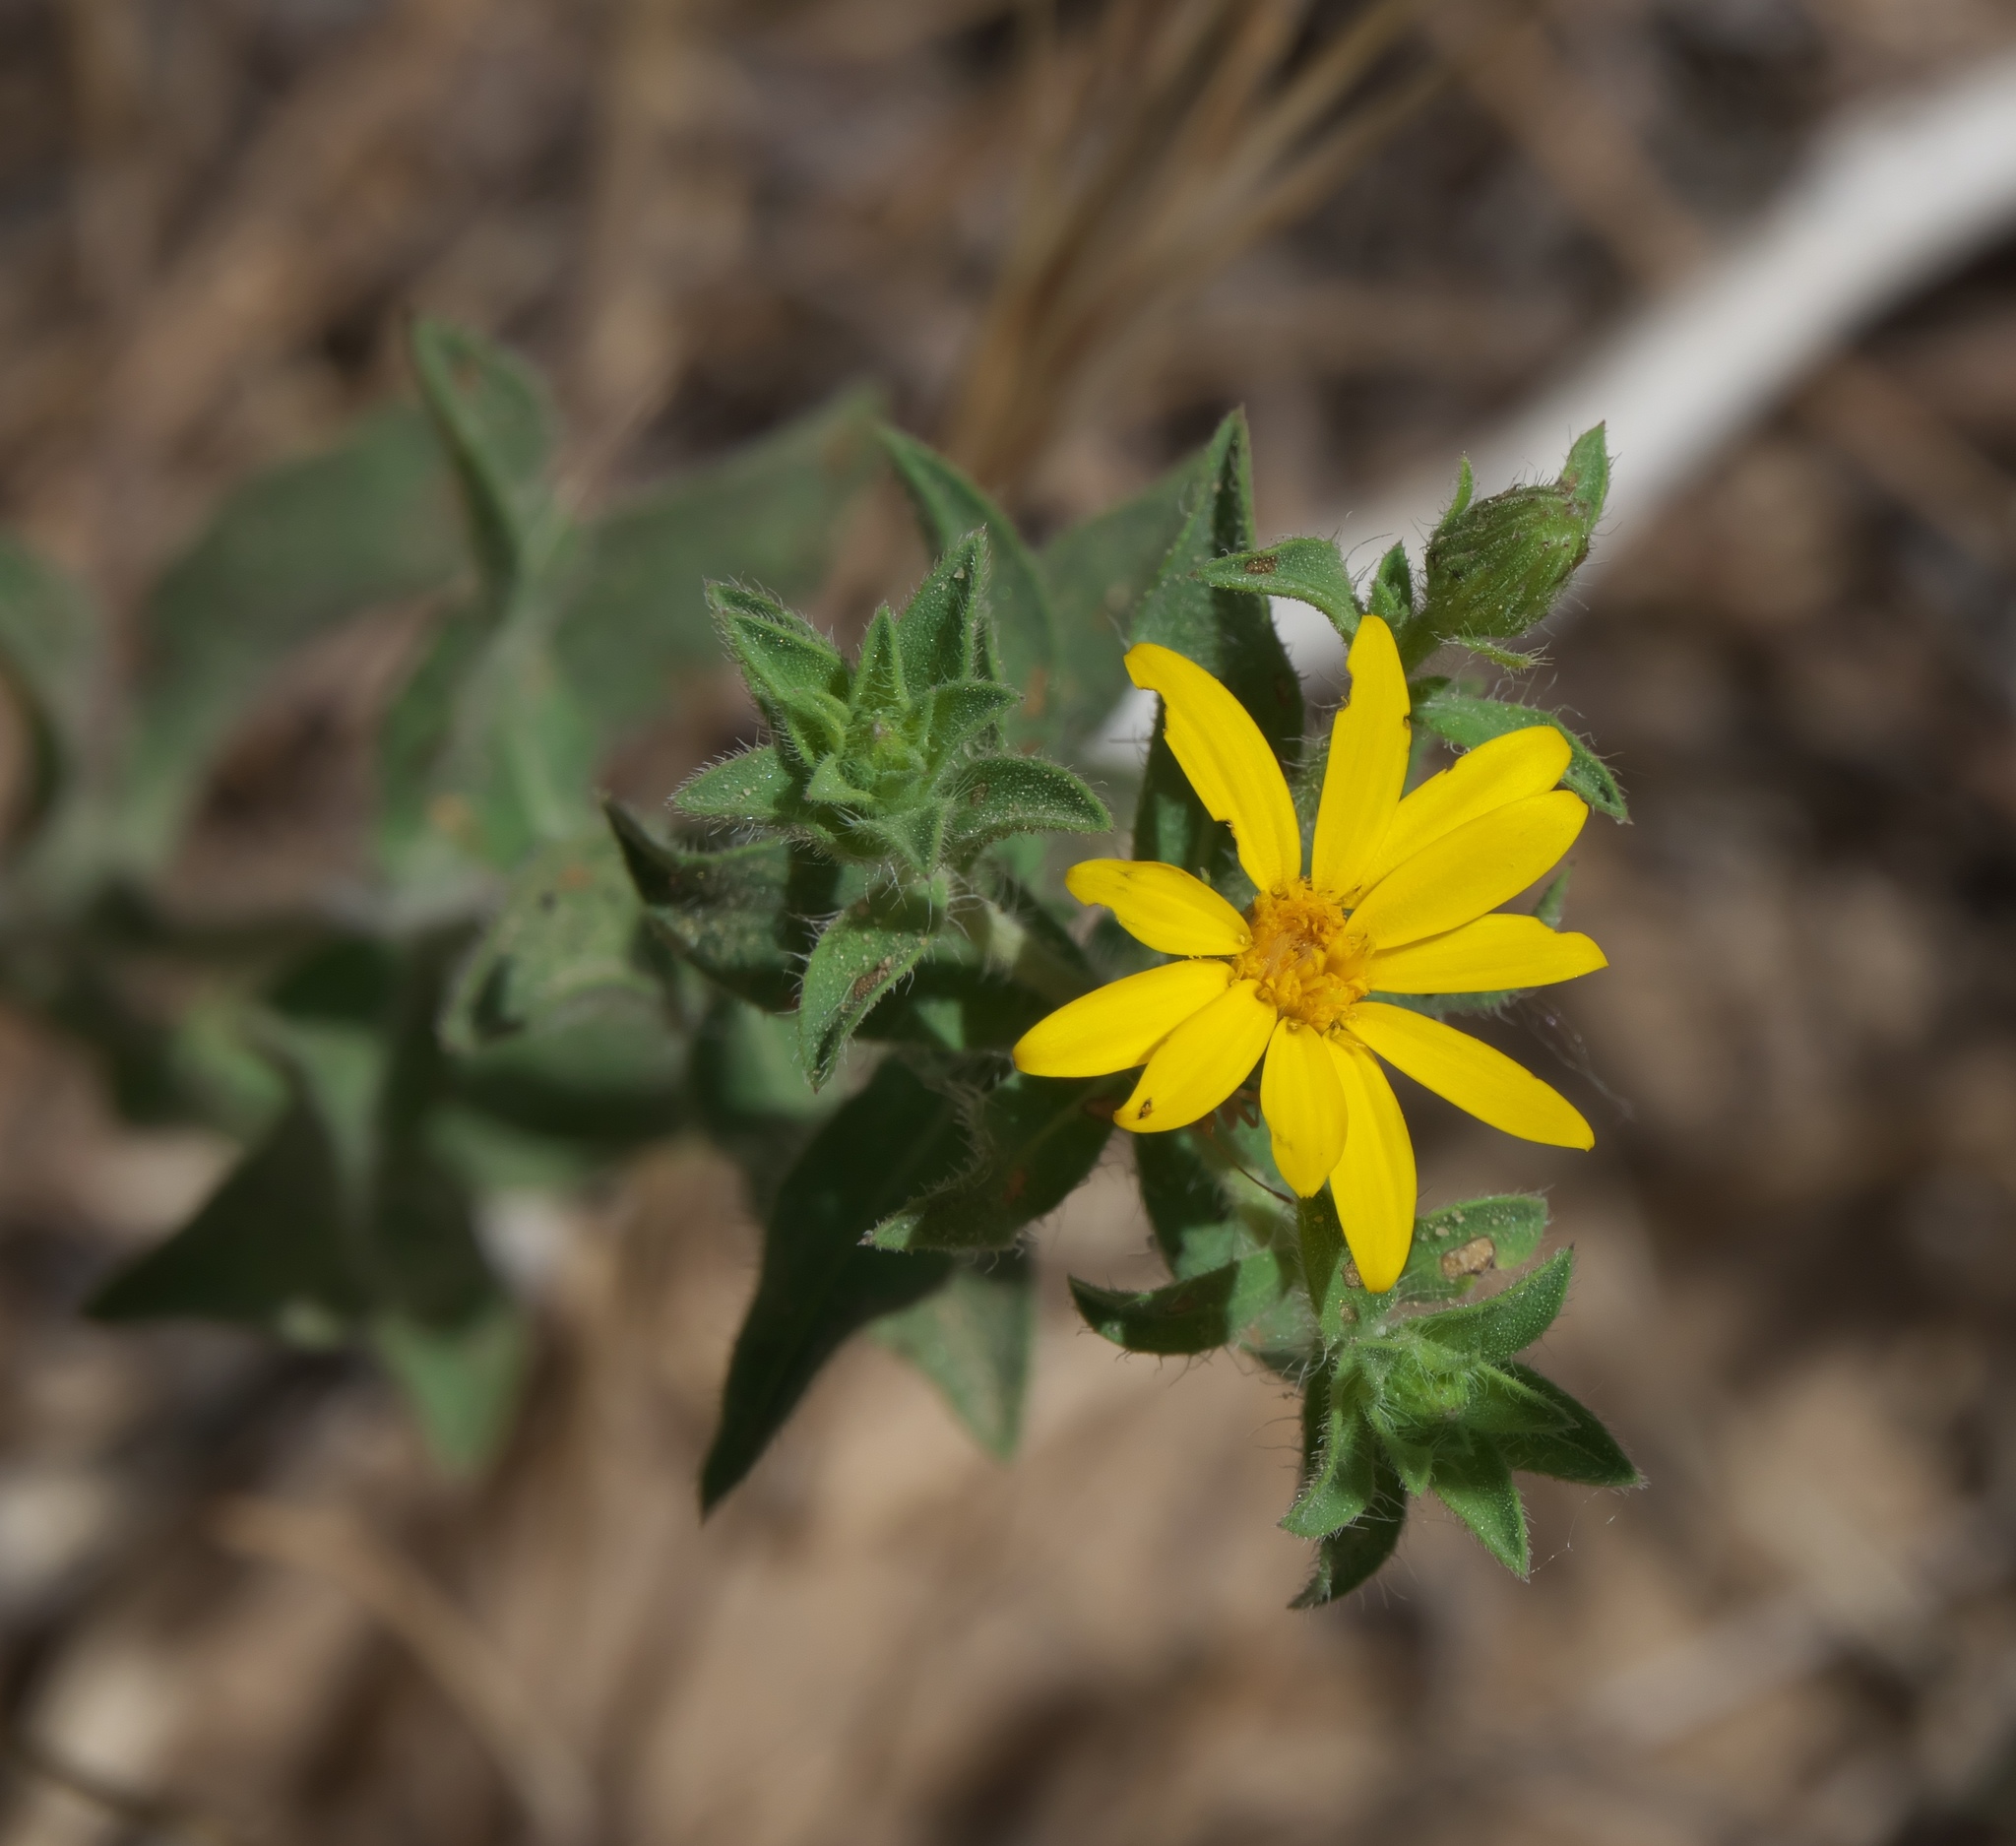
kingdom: Plantae
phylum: Tracheophyta
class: Magnoliopsida
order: Asterales
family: Asteraceae
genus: Heterotheca
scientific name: Heterotheca polothrix
